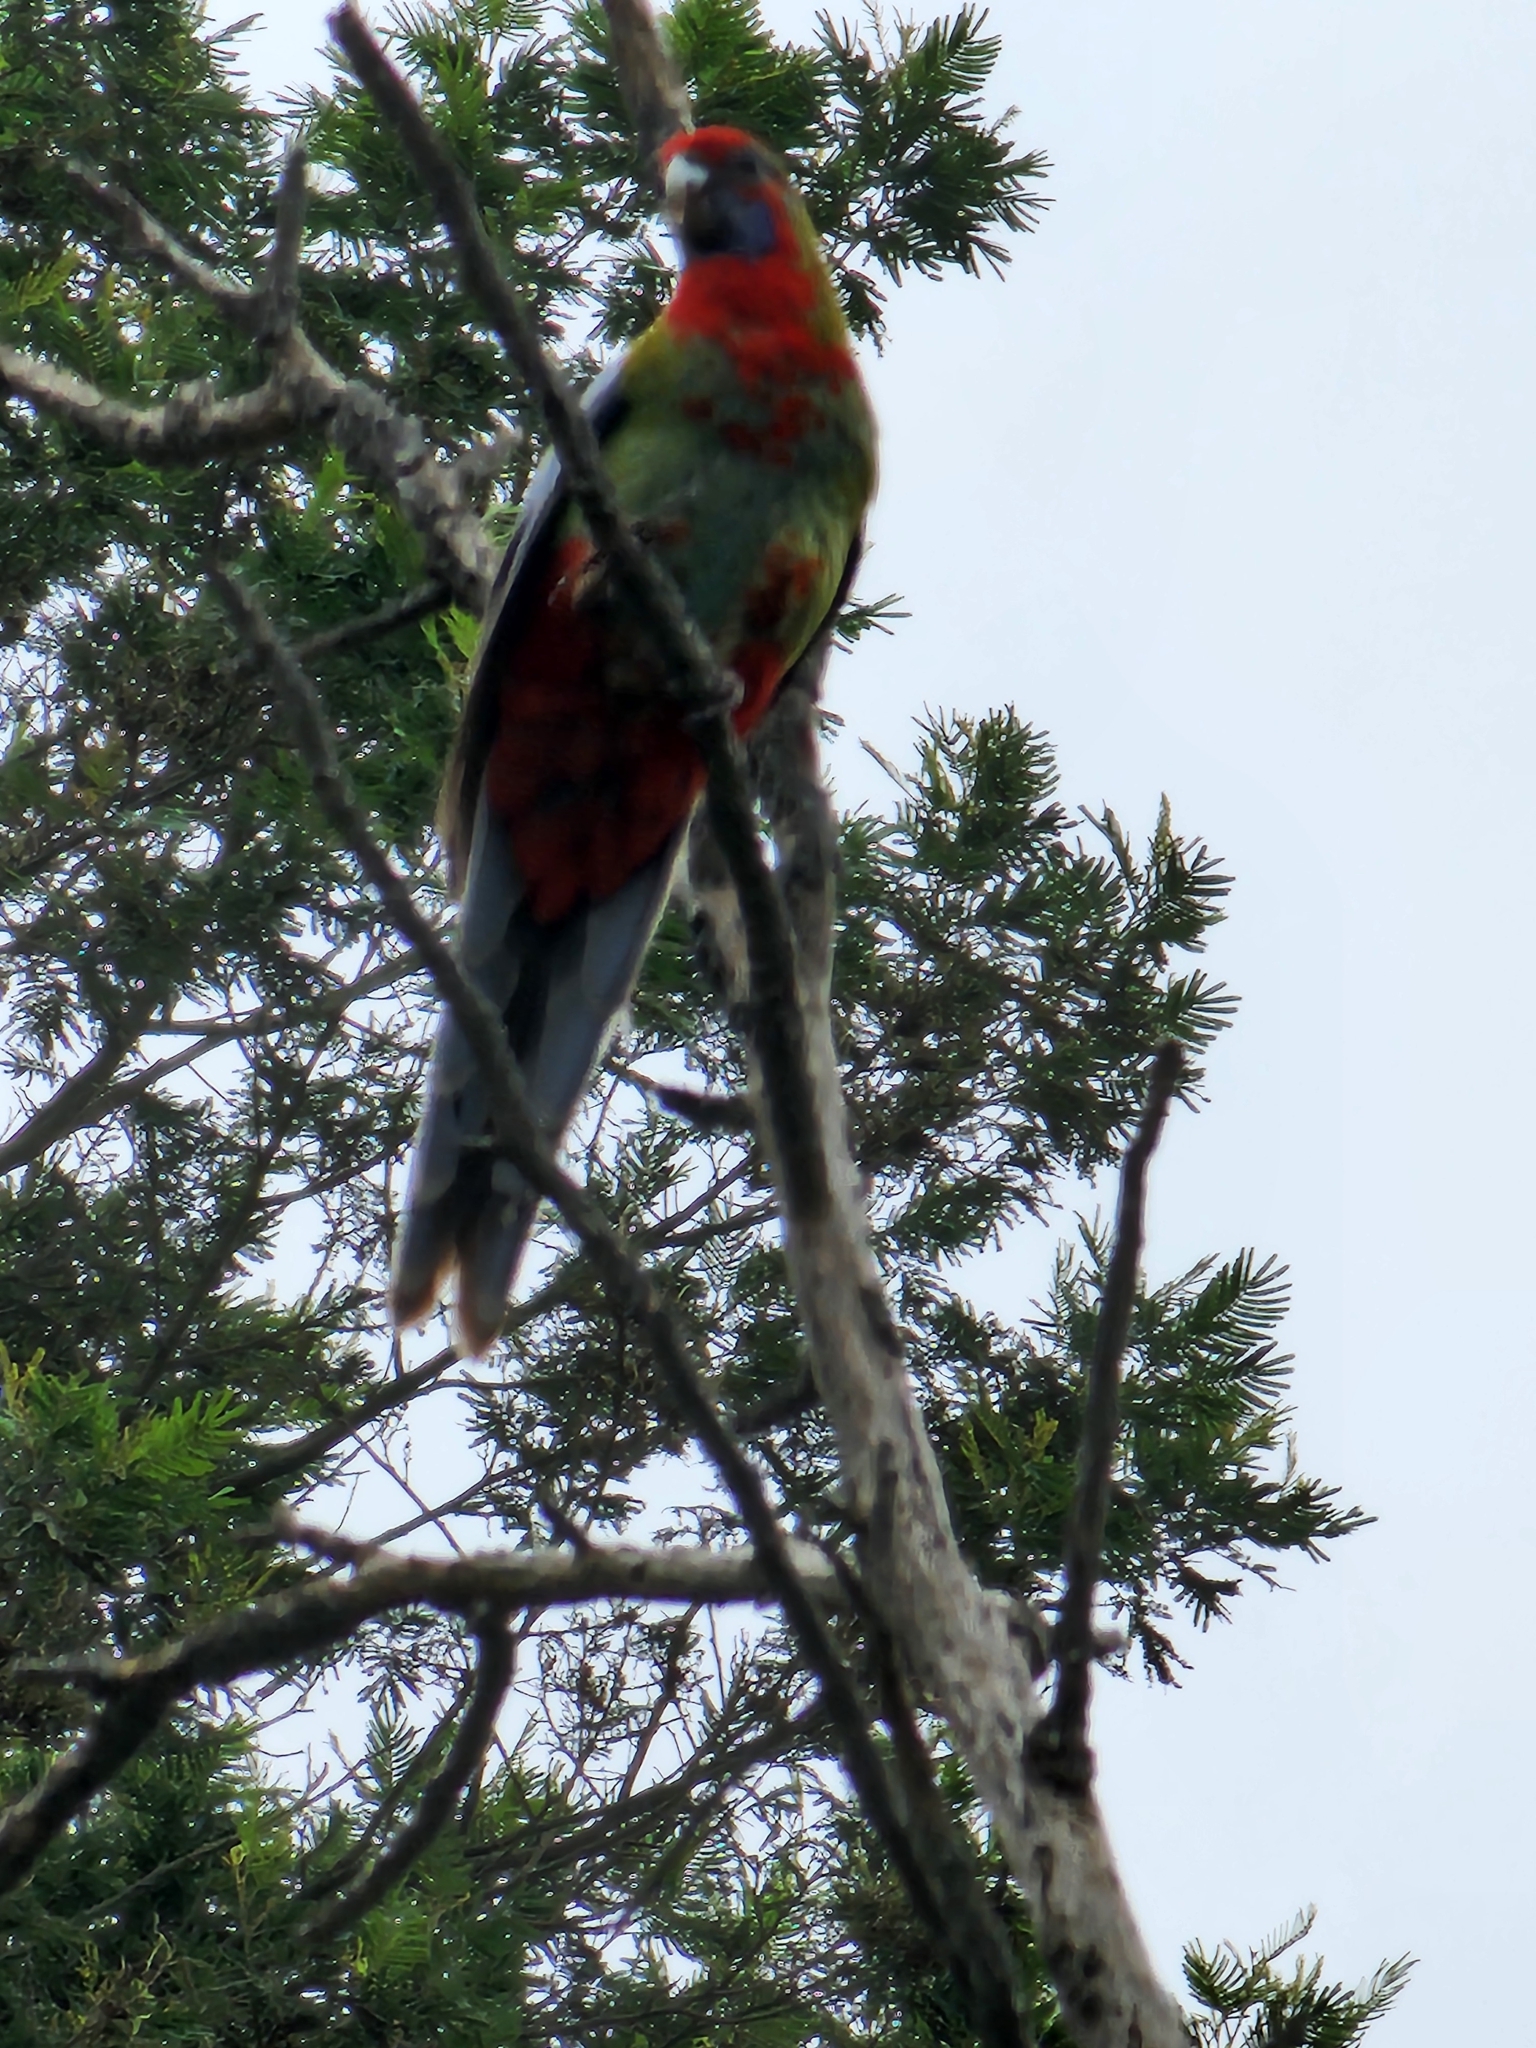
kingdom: Animalia
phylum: Chordata
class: Aves
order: Psittaciformes
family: Psittacidae
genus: Platycercus
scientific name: Platycercus elegans
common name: Crimson rosella
